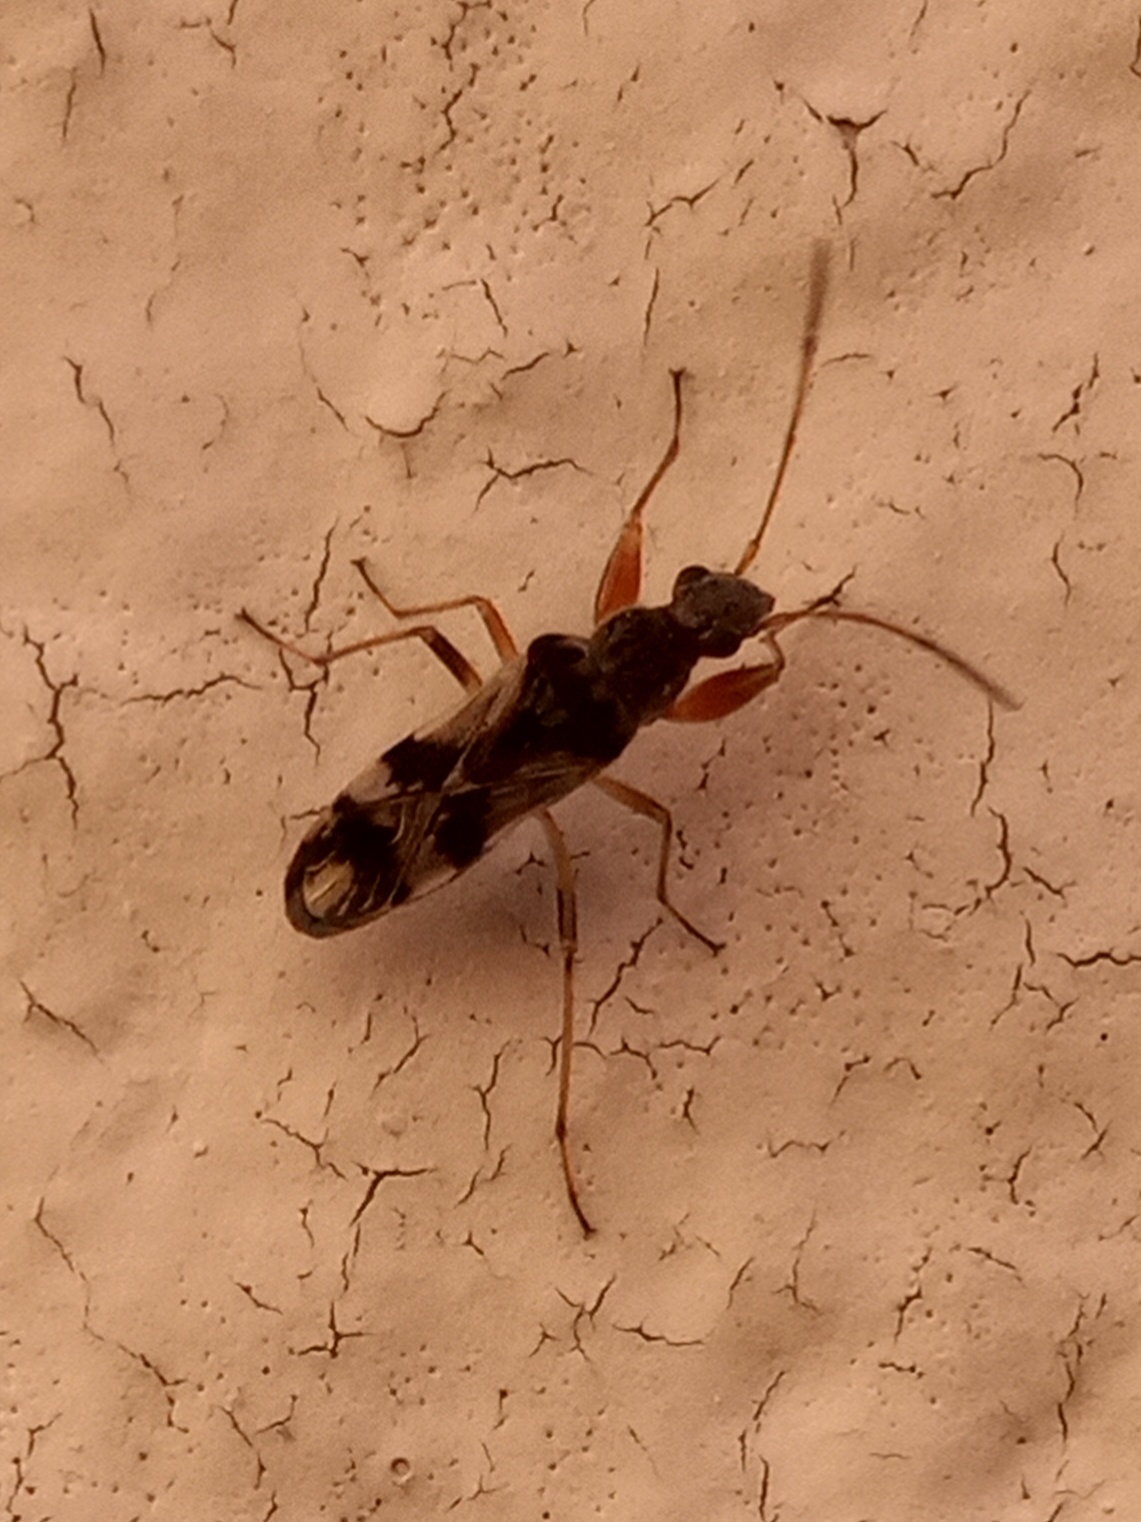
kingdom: Animalia
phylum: Arthropoda
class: Insecta
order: Hemiptera
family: Rhyparochromidae
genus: Neopamera
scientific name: Neopamera bilobata
